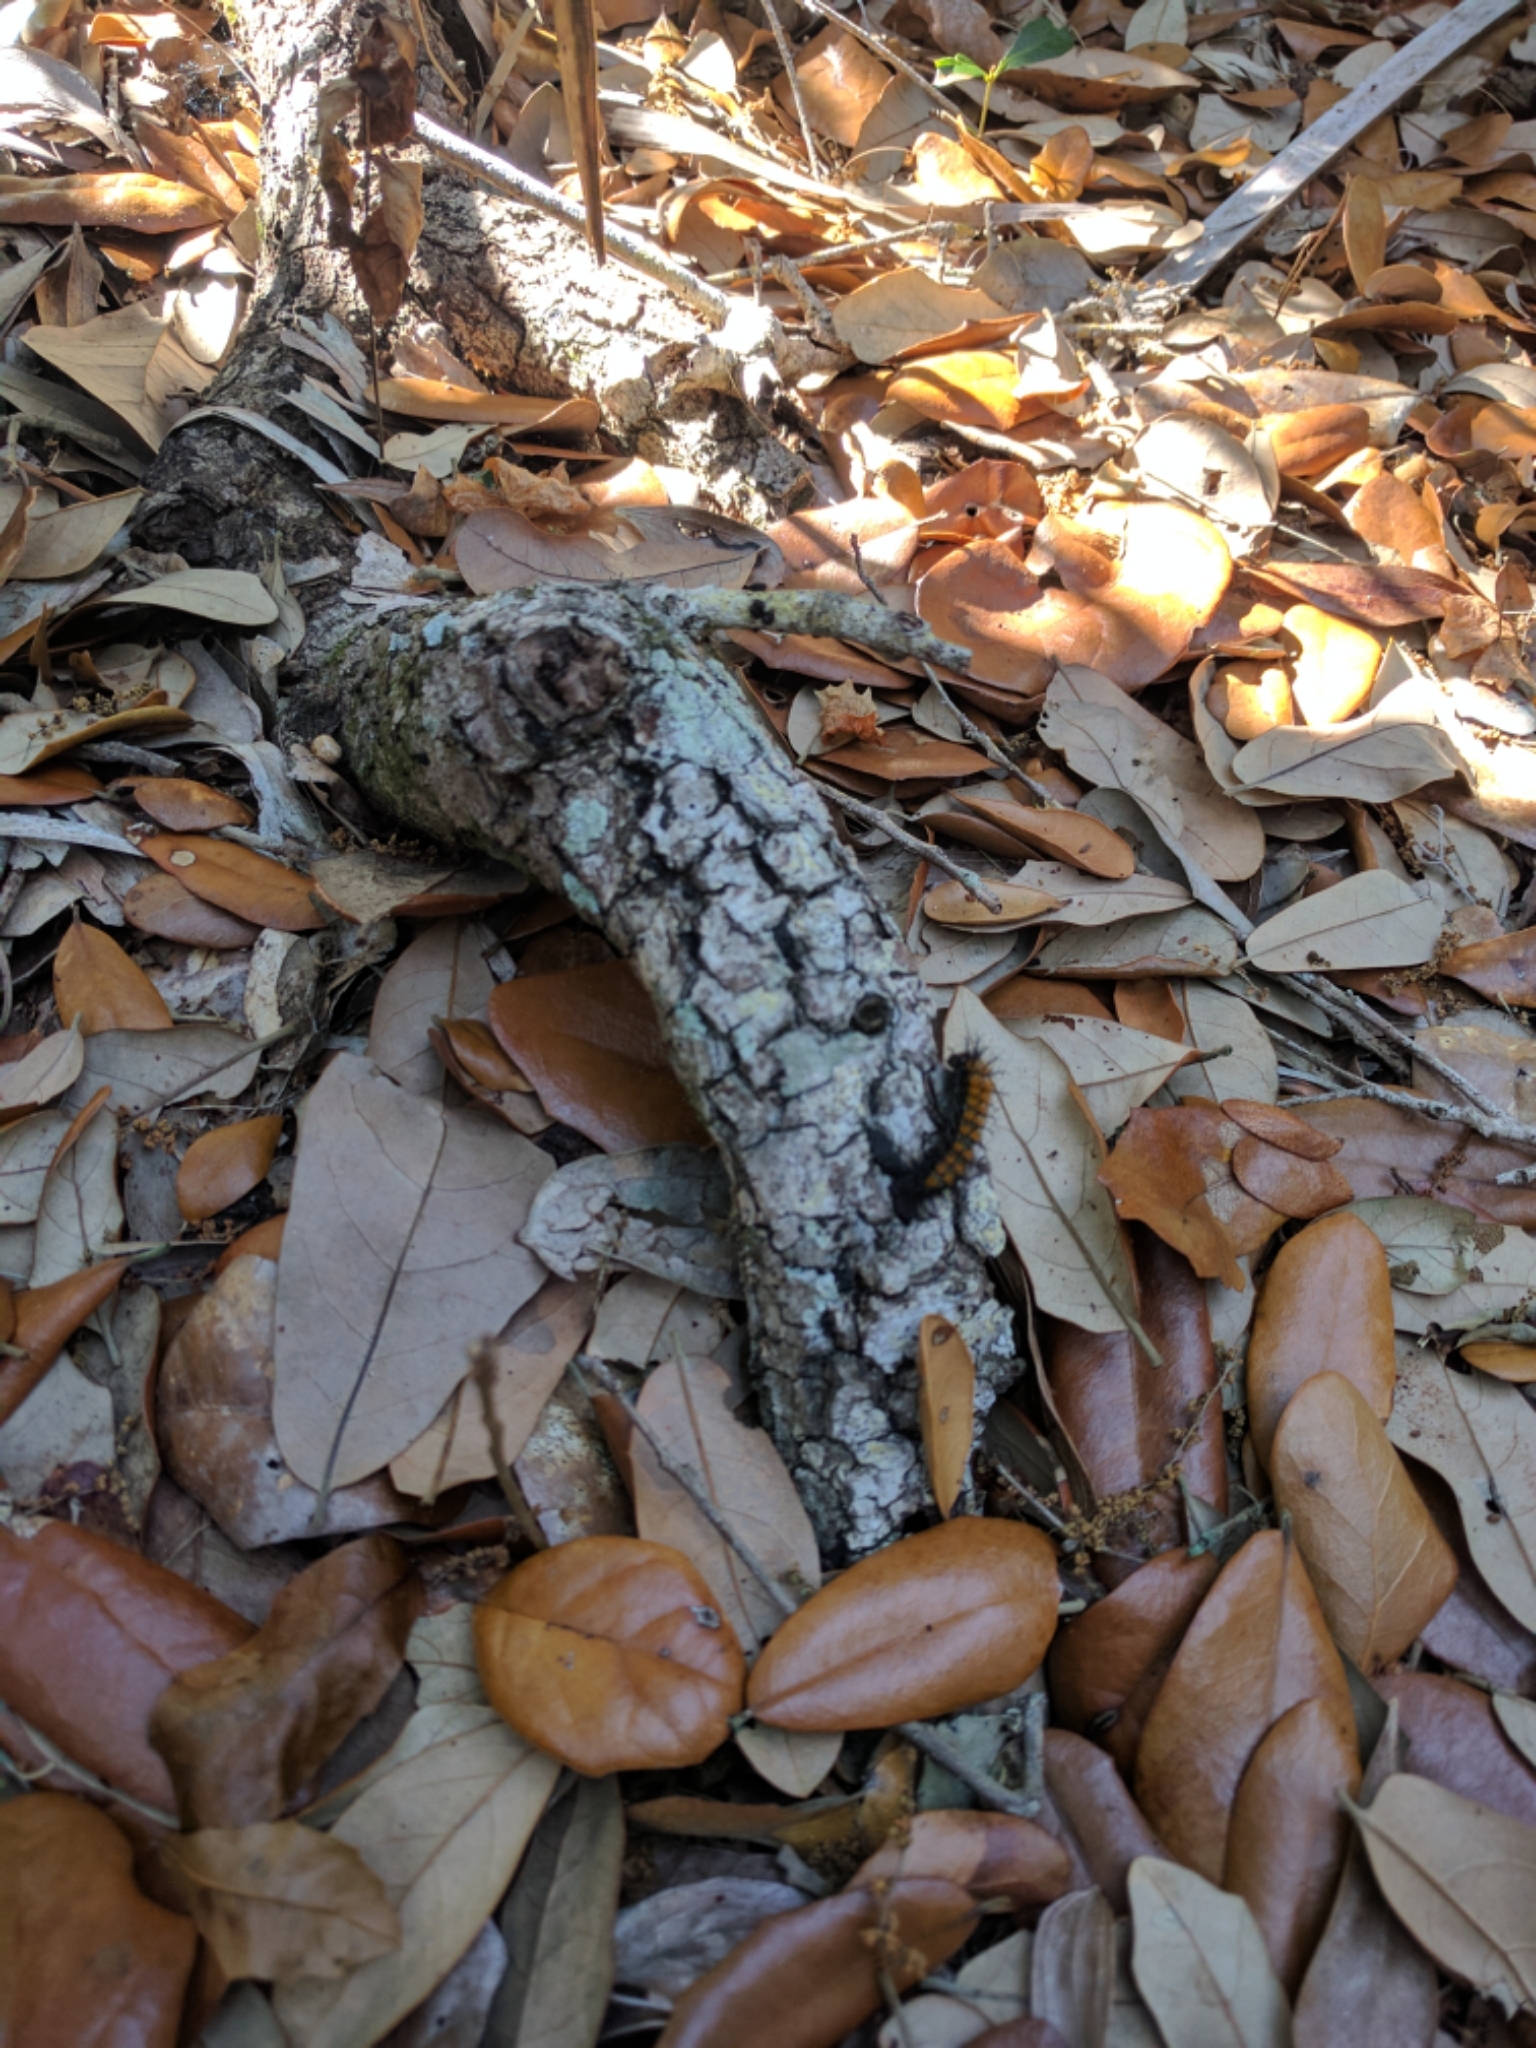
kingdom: Animalia
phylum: Arthropoda
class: Insecta
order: Lepidoptera
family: Saturniidae
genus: Hemileuca
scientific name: Hemileuca maia
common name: Eastern buckmoth
